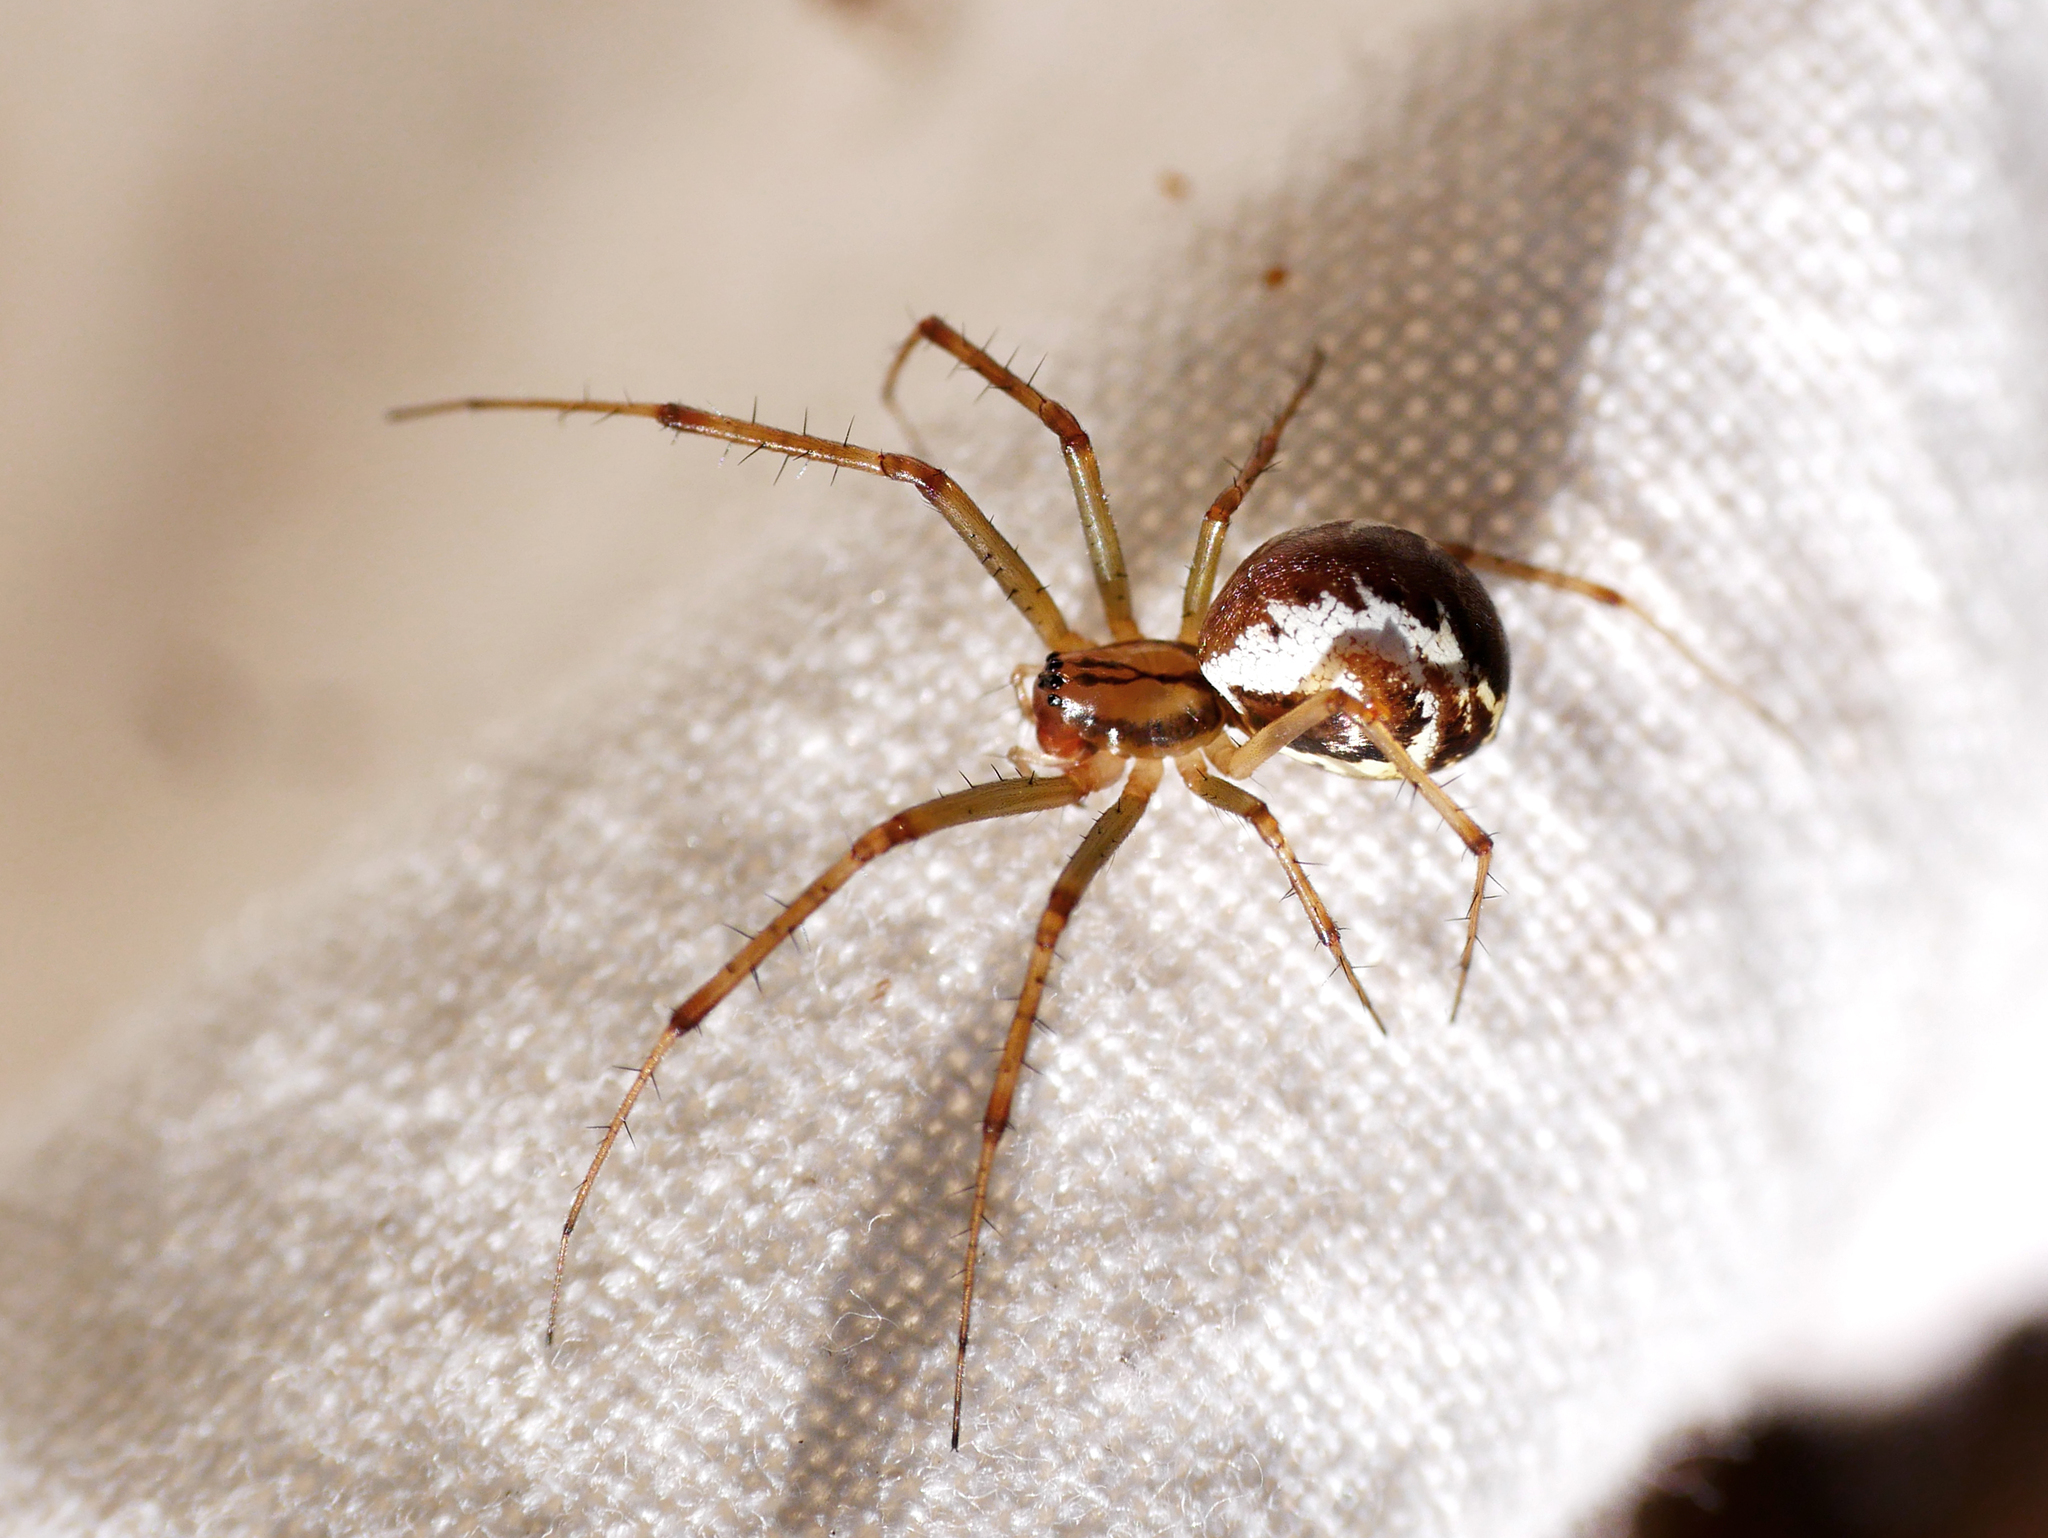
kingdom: Animalia
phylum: Arthropoda
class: Arachnida
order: Araneae
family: Linyphiidae
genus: Linyphia
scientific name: Linyphia triangularis
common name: Money spider
